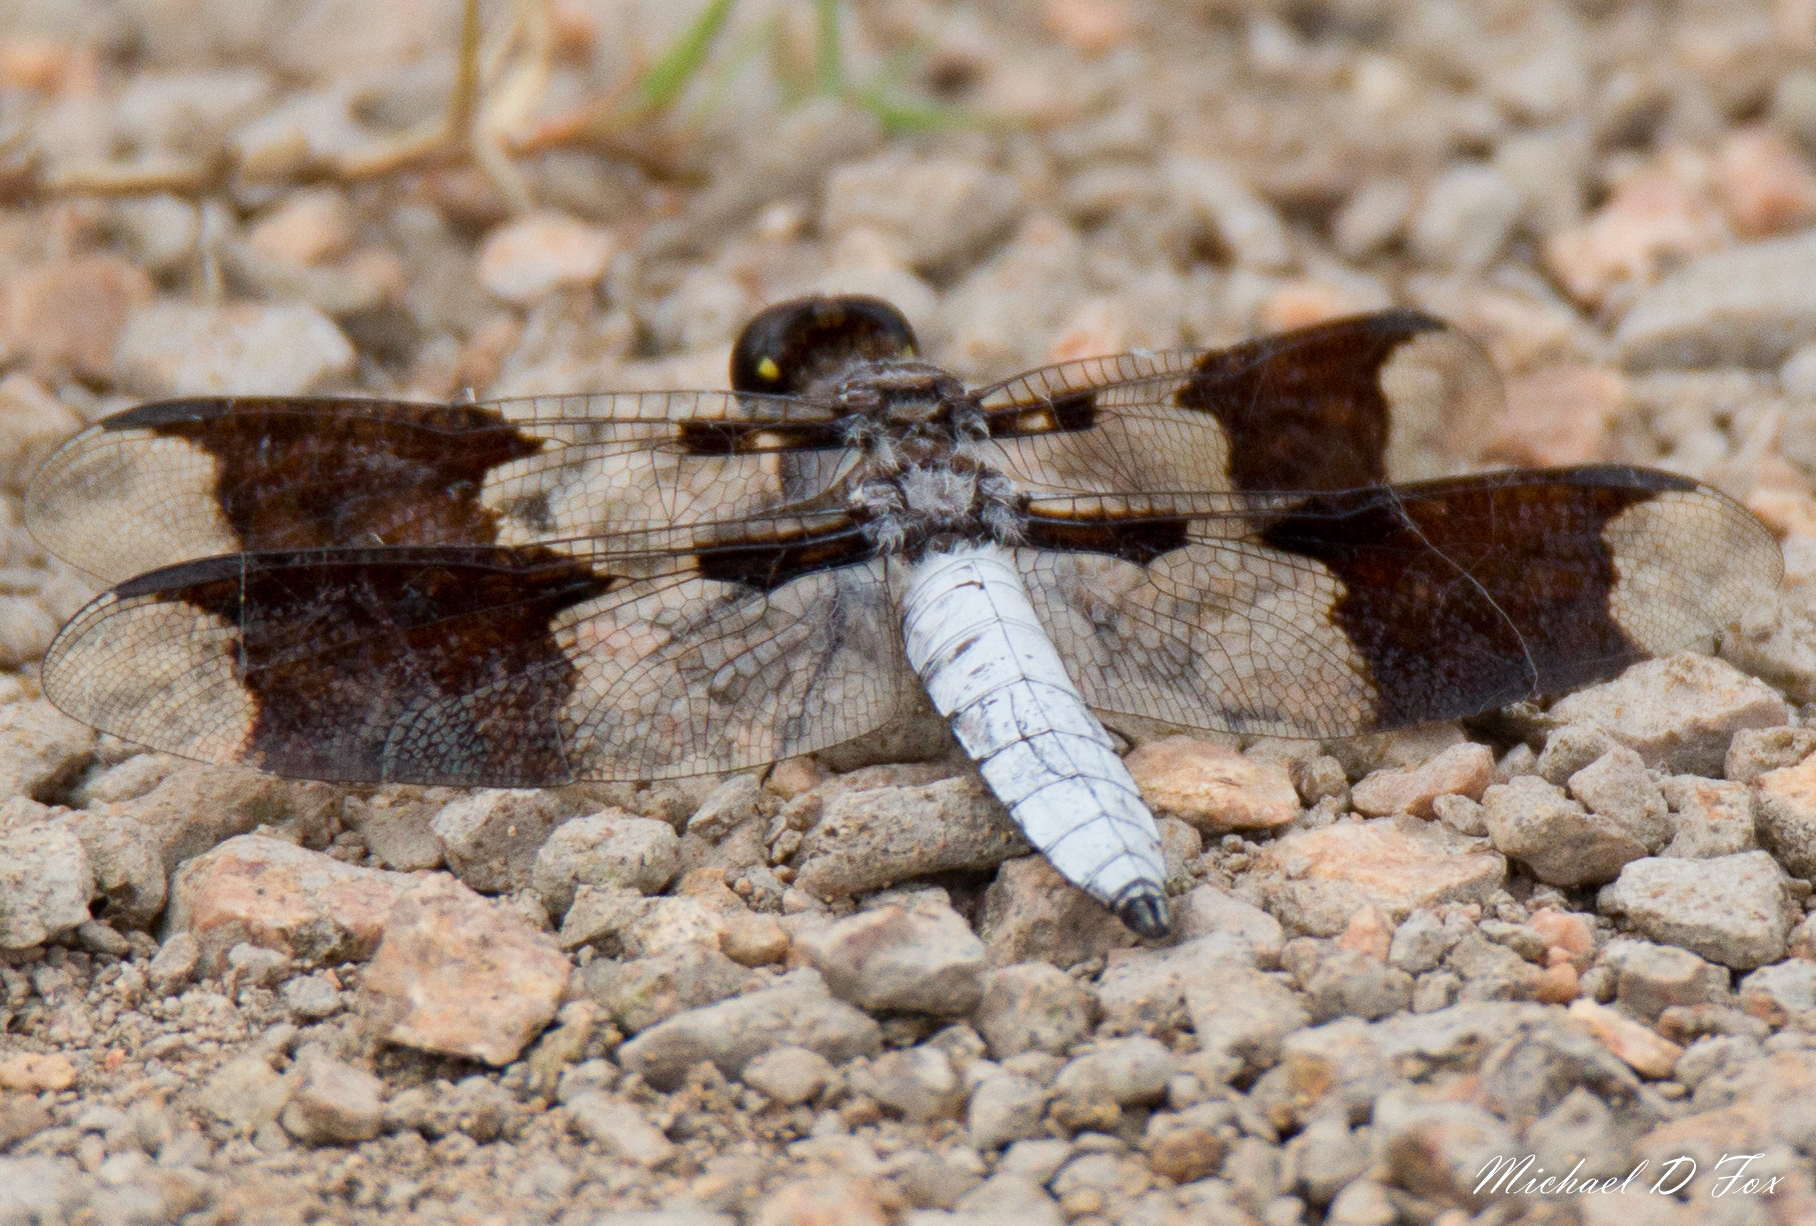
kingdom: Animalia
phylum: Arthropoda
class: Insecta
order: Odonata
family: Libellulidae
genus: Plathemis
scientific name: Plathemis lydia
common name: Common whitetail
